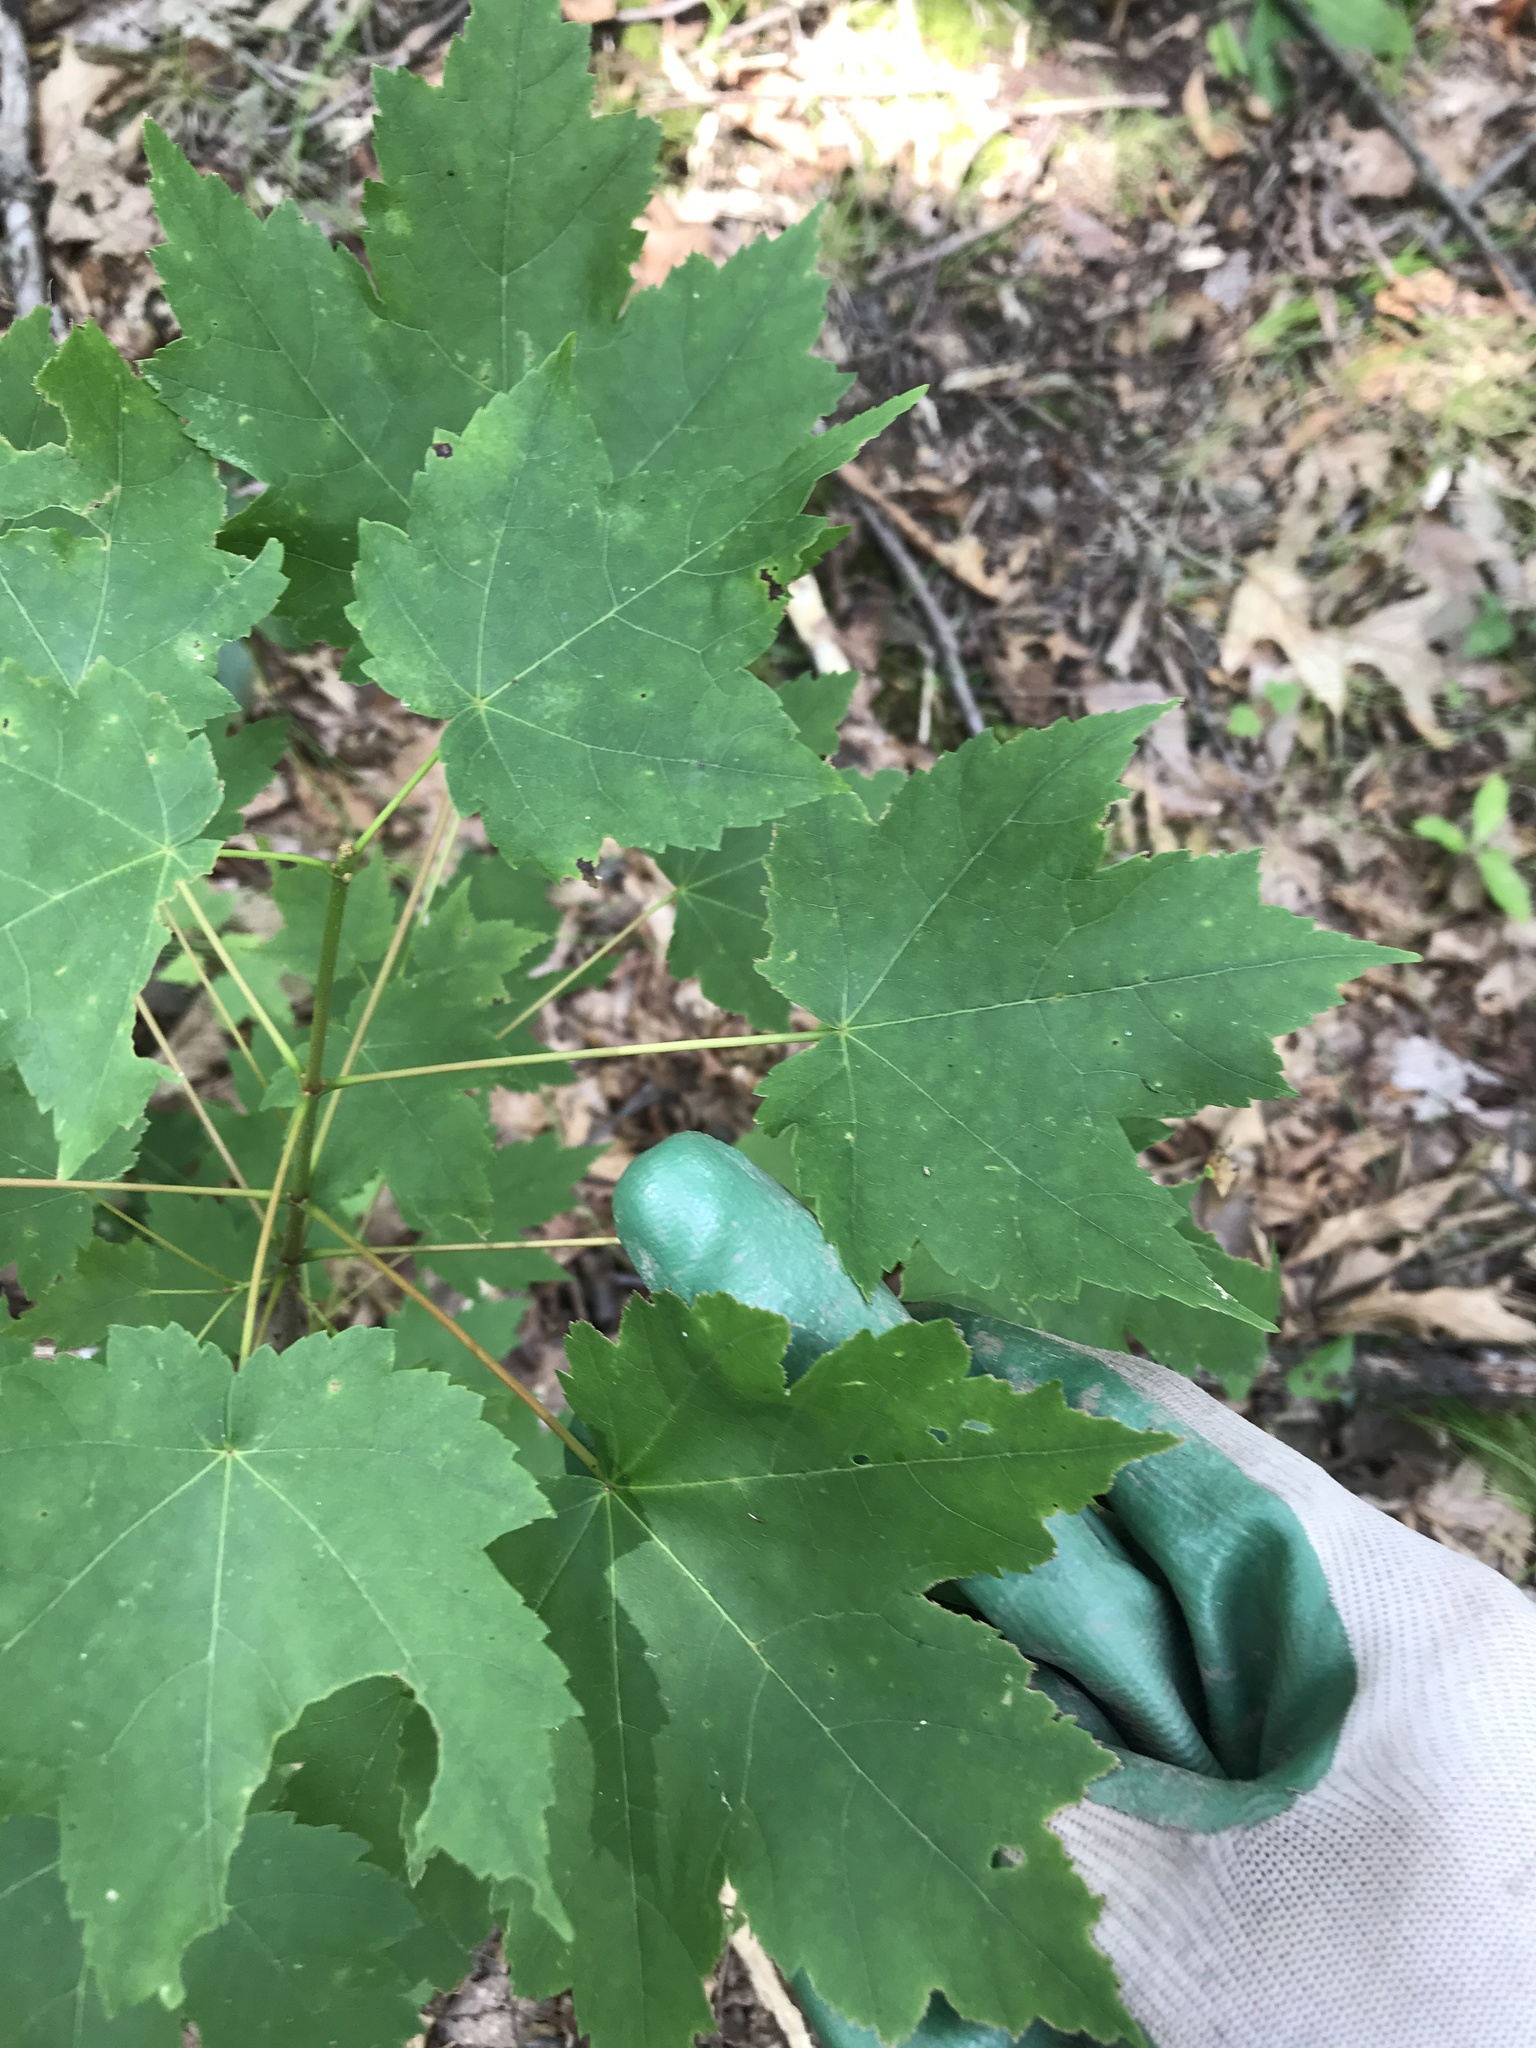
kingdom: Plantae
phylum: Tracheophyta
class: Magnoliopsida
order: Sapindales
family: Sapindaceae
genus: Acer
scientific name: Acer rubrum
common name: Red maple
